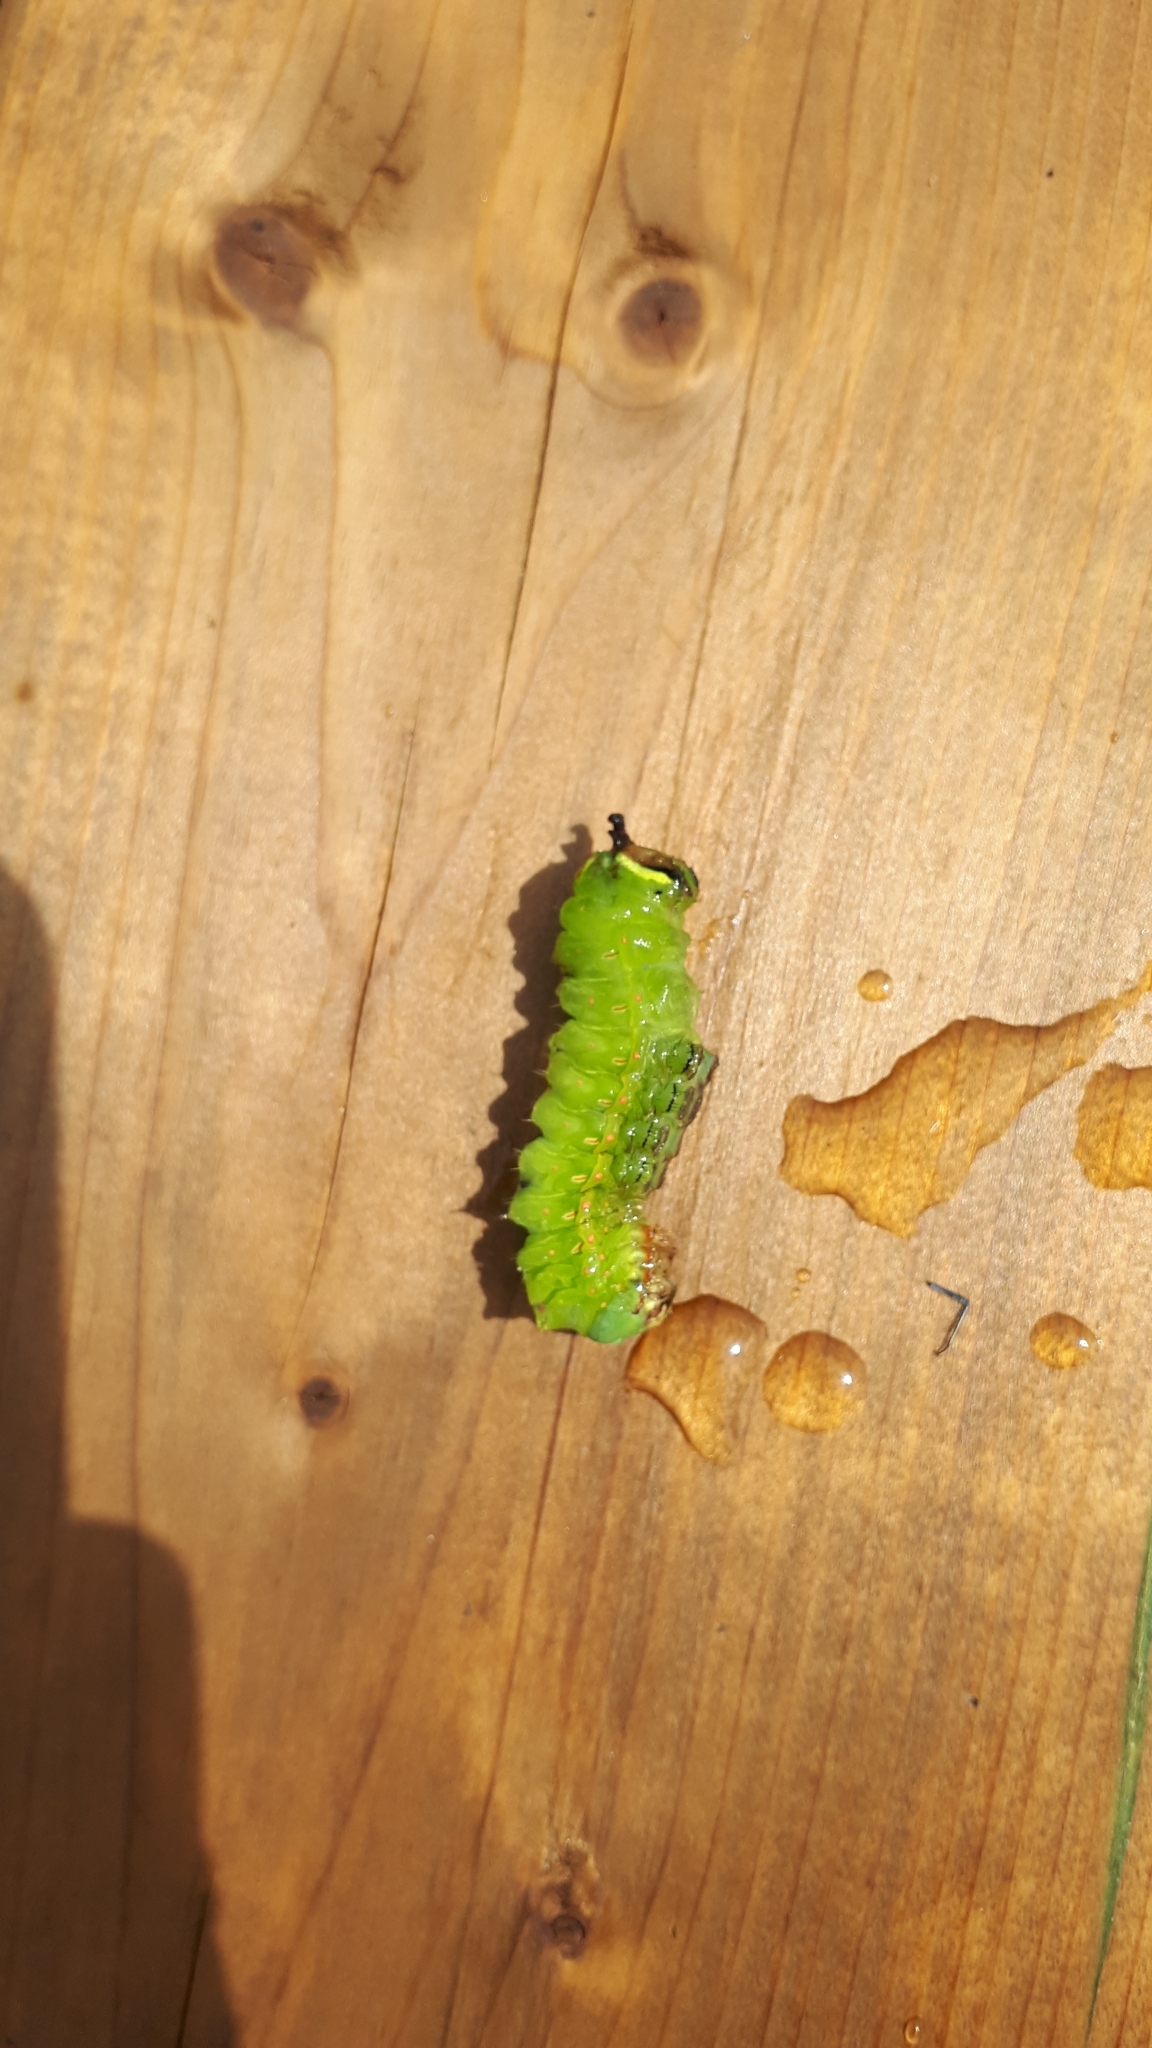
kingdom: Animalia
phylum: Arthropoda
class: Insecta
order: Lepidoptera
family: Saturniidae
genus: Actias
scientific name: Actias luna
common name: Luna moth
